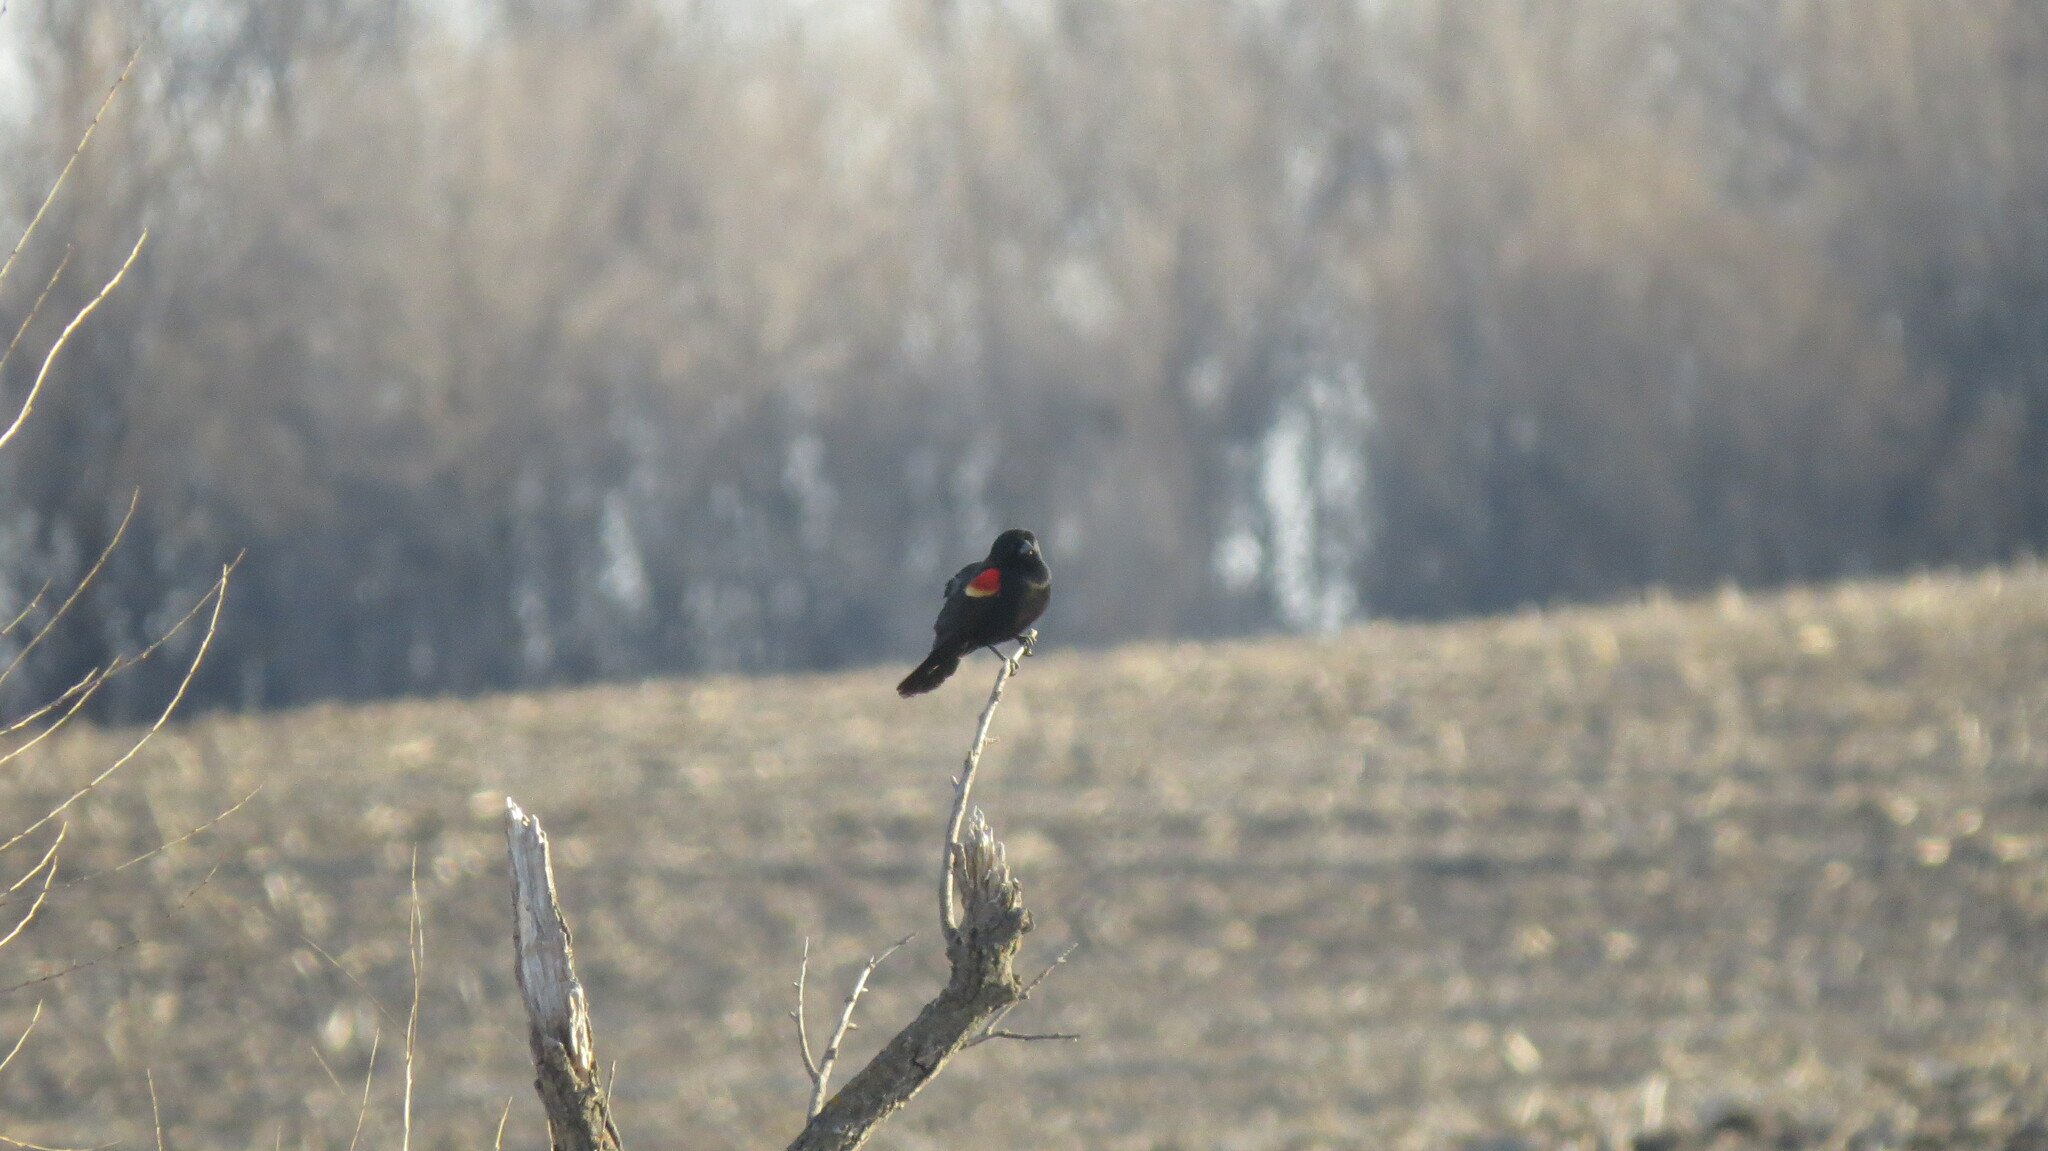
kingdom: Animalia
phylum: Chordata
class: Aves
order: Passeriformes
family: Icteridae
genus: Agelaius
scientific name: Agelaius phoeniceus
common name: Red-winged blackbird
